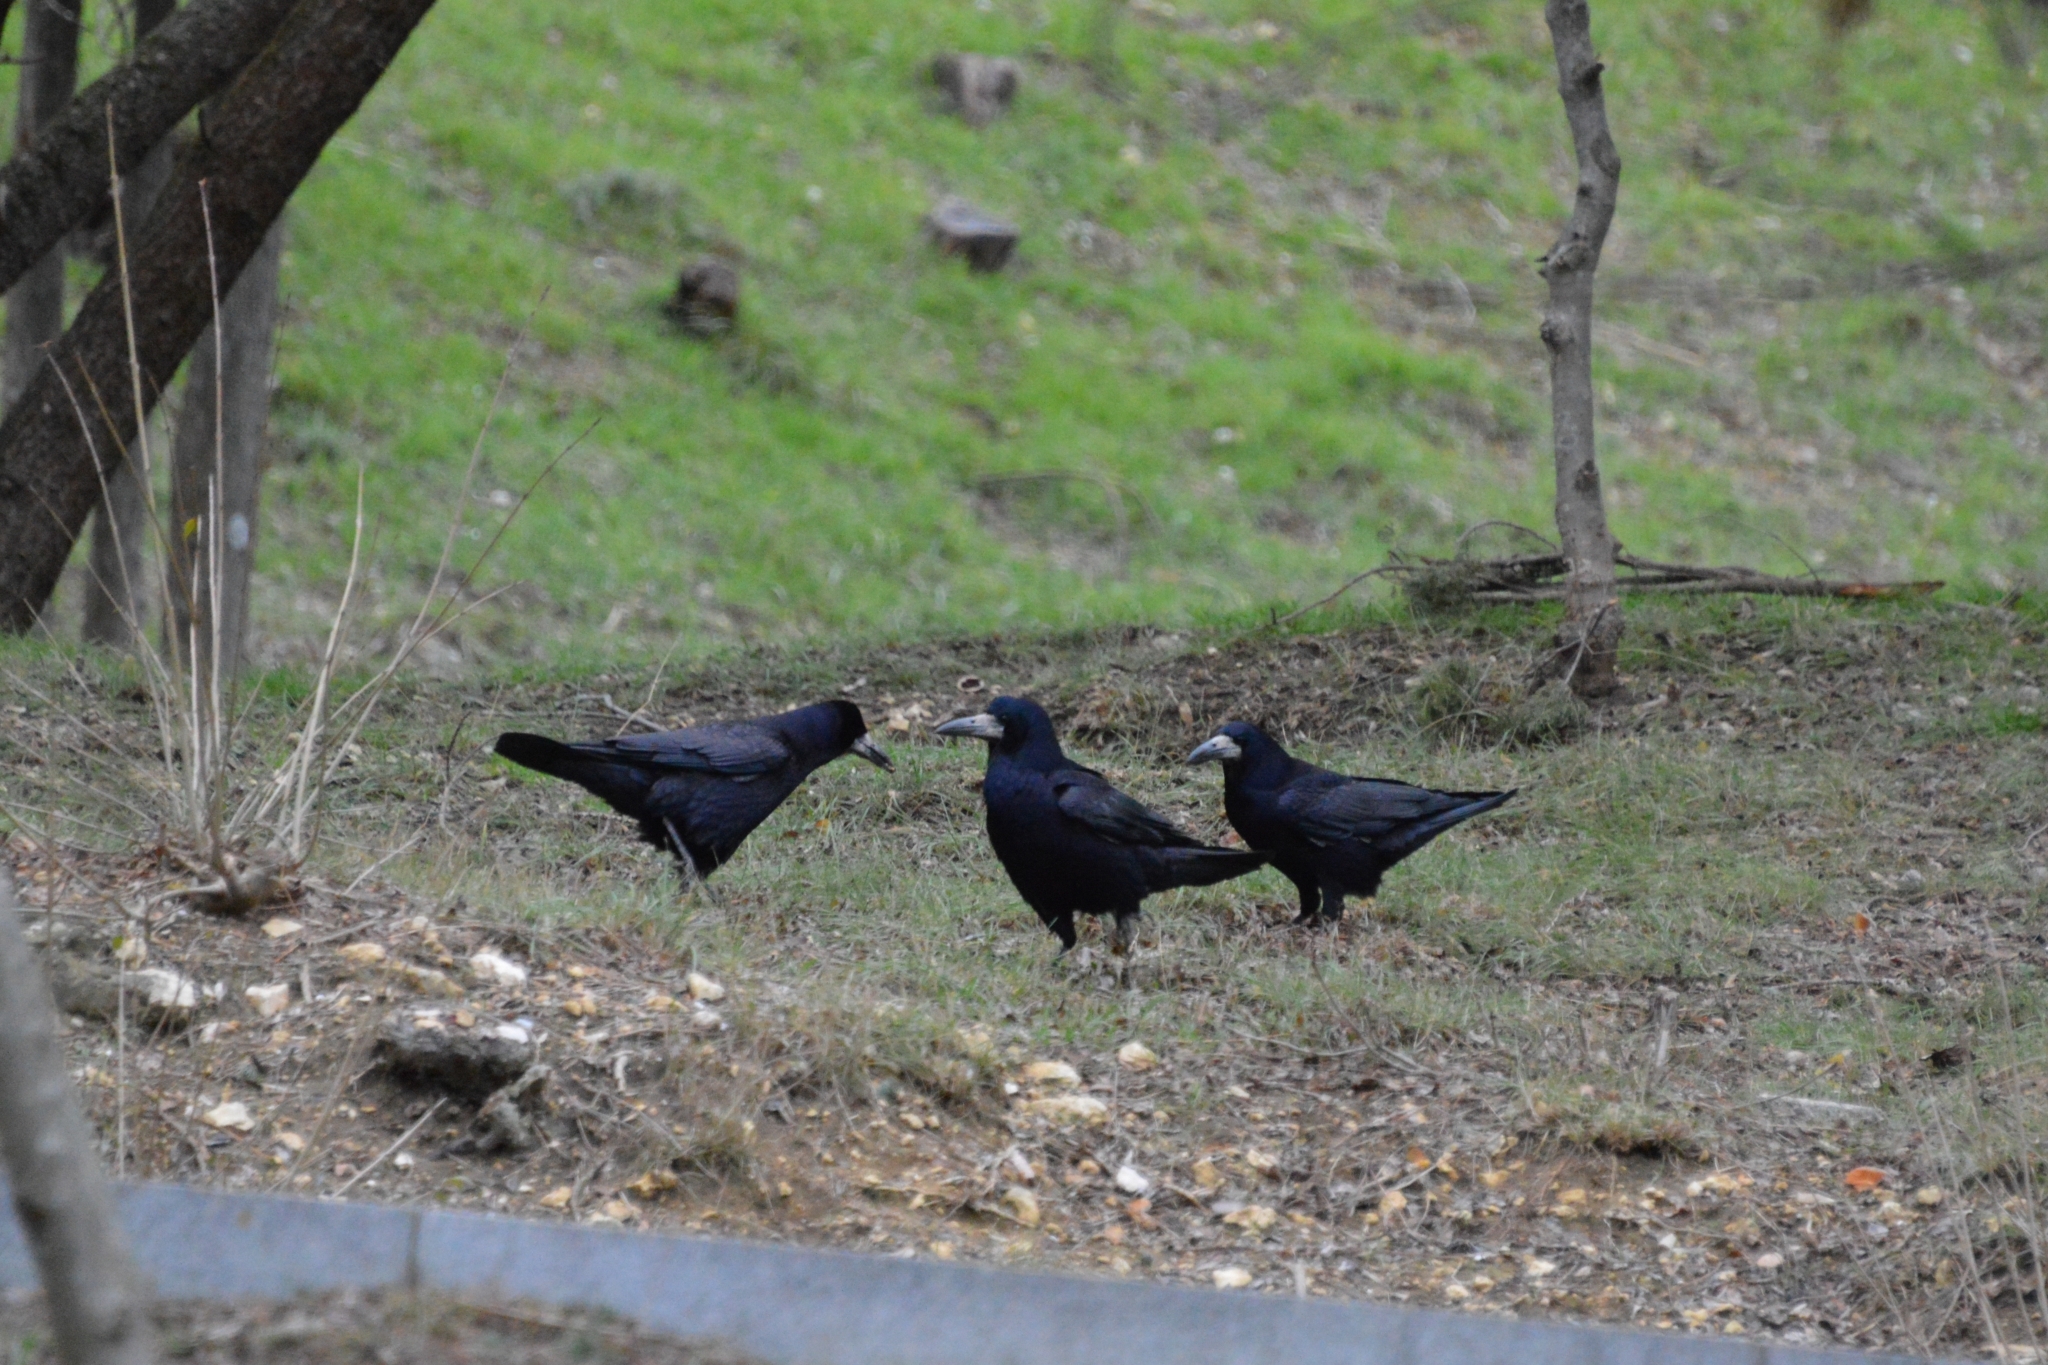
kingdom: Animalia
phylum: Chordata
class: Aves
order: Passeriformes
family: Corvidae
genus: Corvus
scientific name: Corvus frugilegus
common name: Rook
